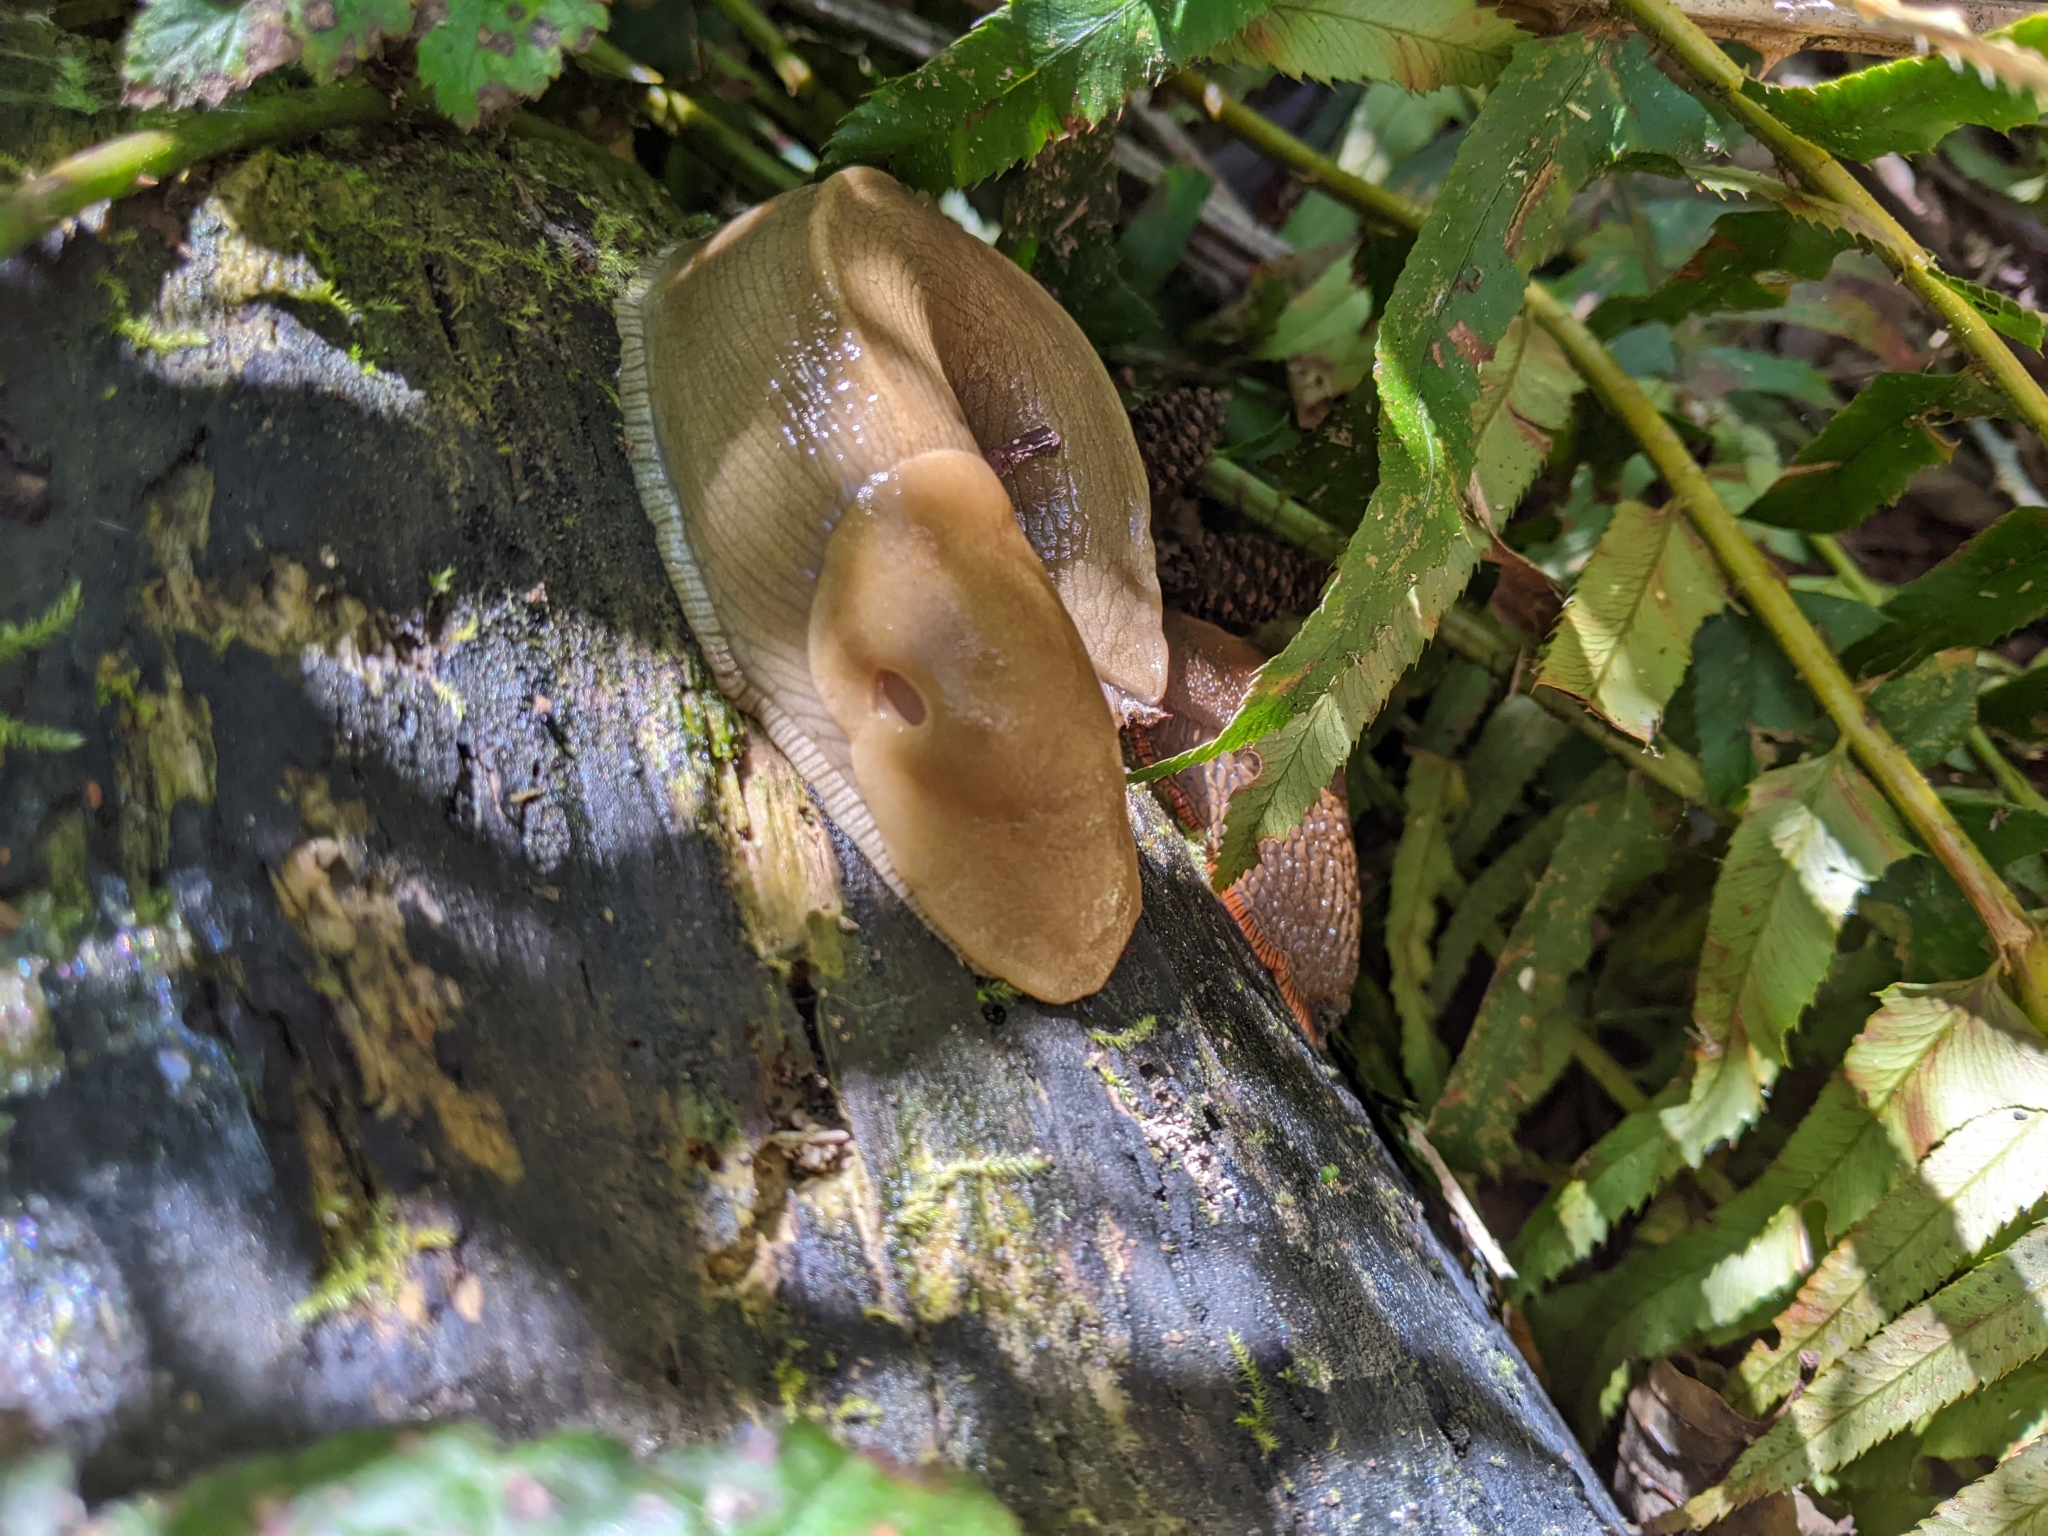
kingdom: Animalia
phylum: Mollusca
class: Gastropoda
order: Stylommatophora
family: Ariolimacidae
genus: Ariolimax
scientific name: Ariolimax columbianus
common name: Pacific banana slug
